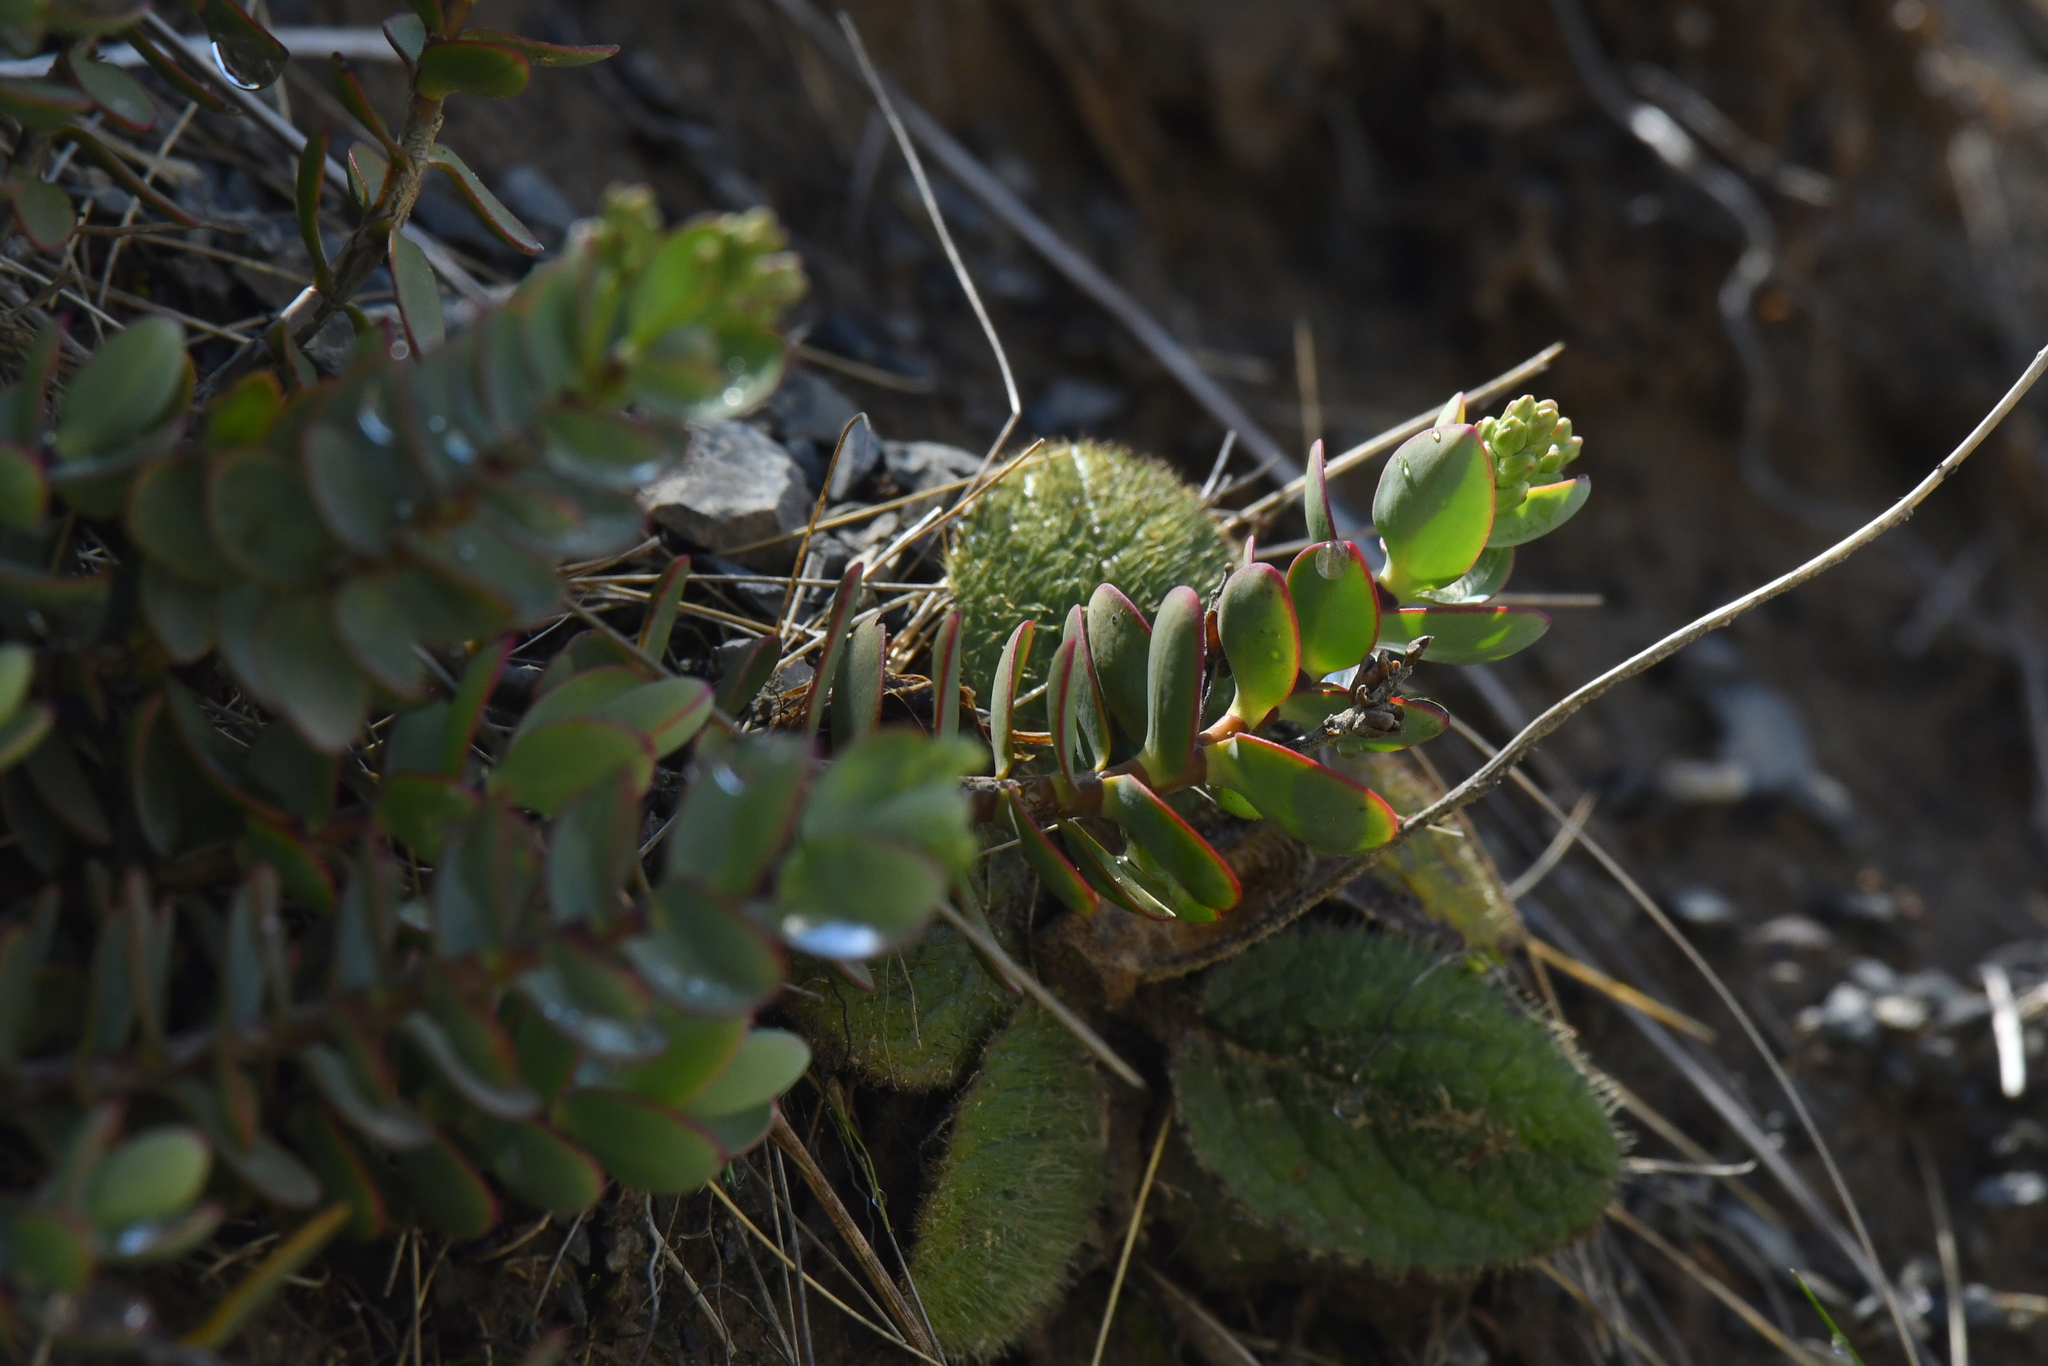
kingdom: Plantae
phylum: Tracheophyta
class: Magnoliopsida
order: Lamiales
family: Plantaginaceae
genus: Veronica
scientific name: Veronica pinguifolia
